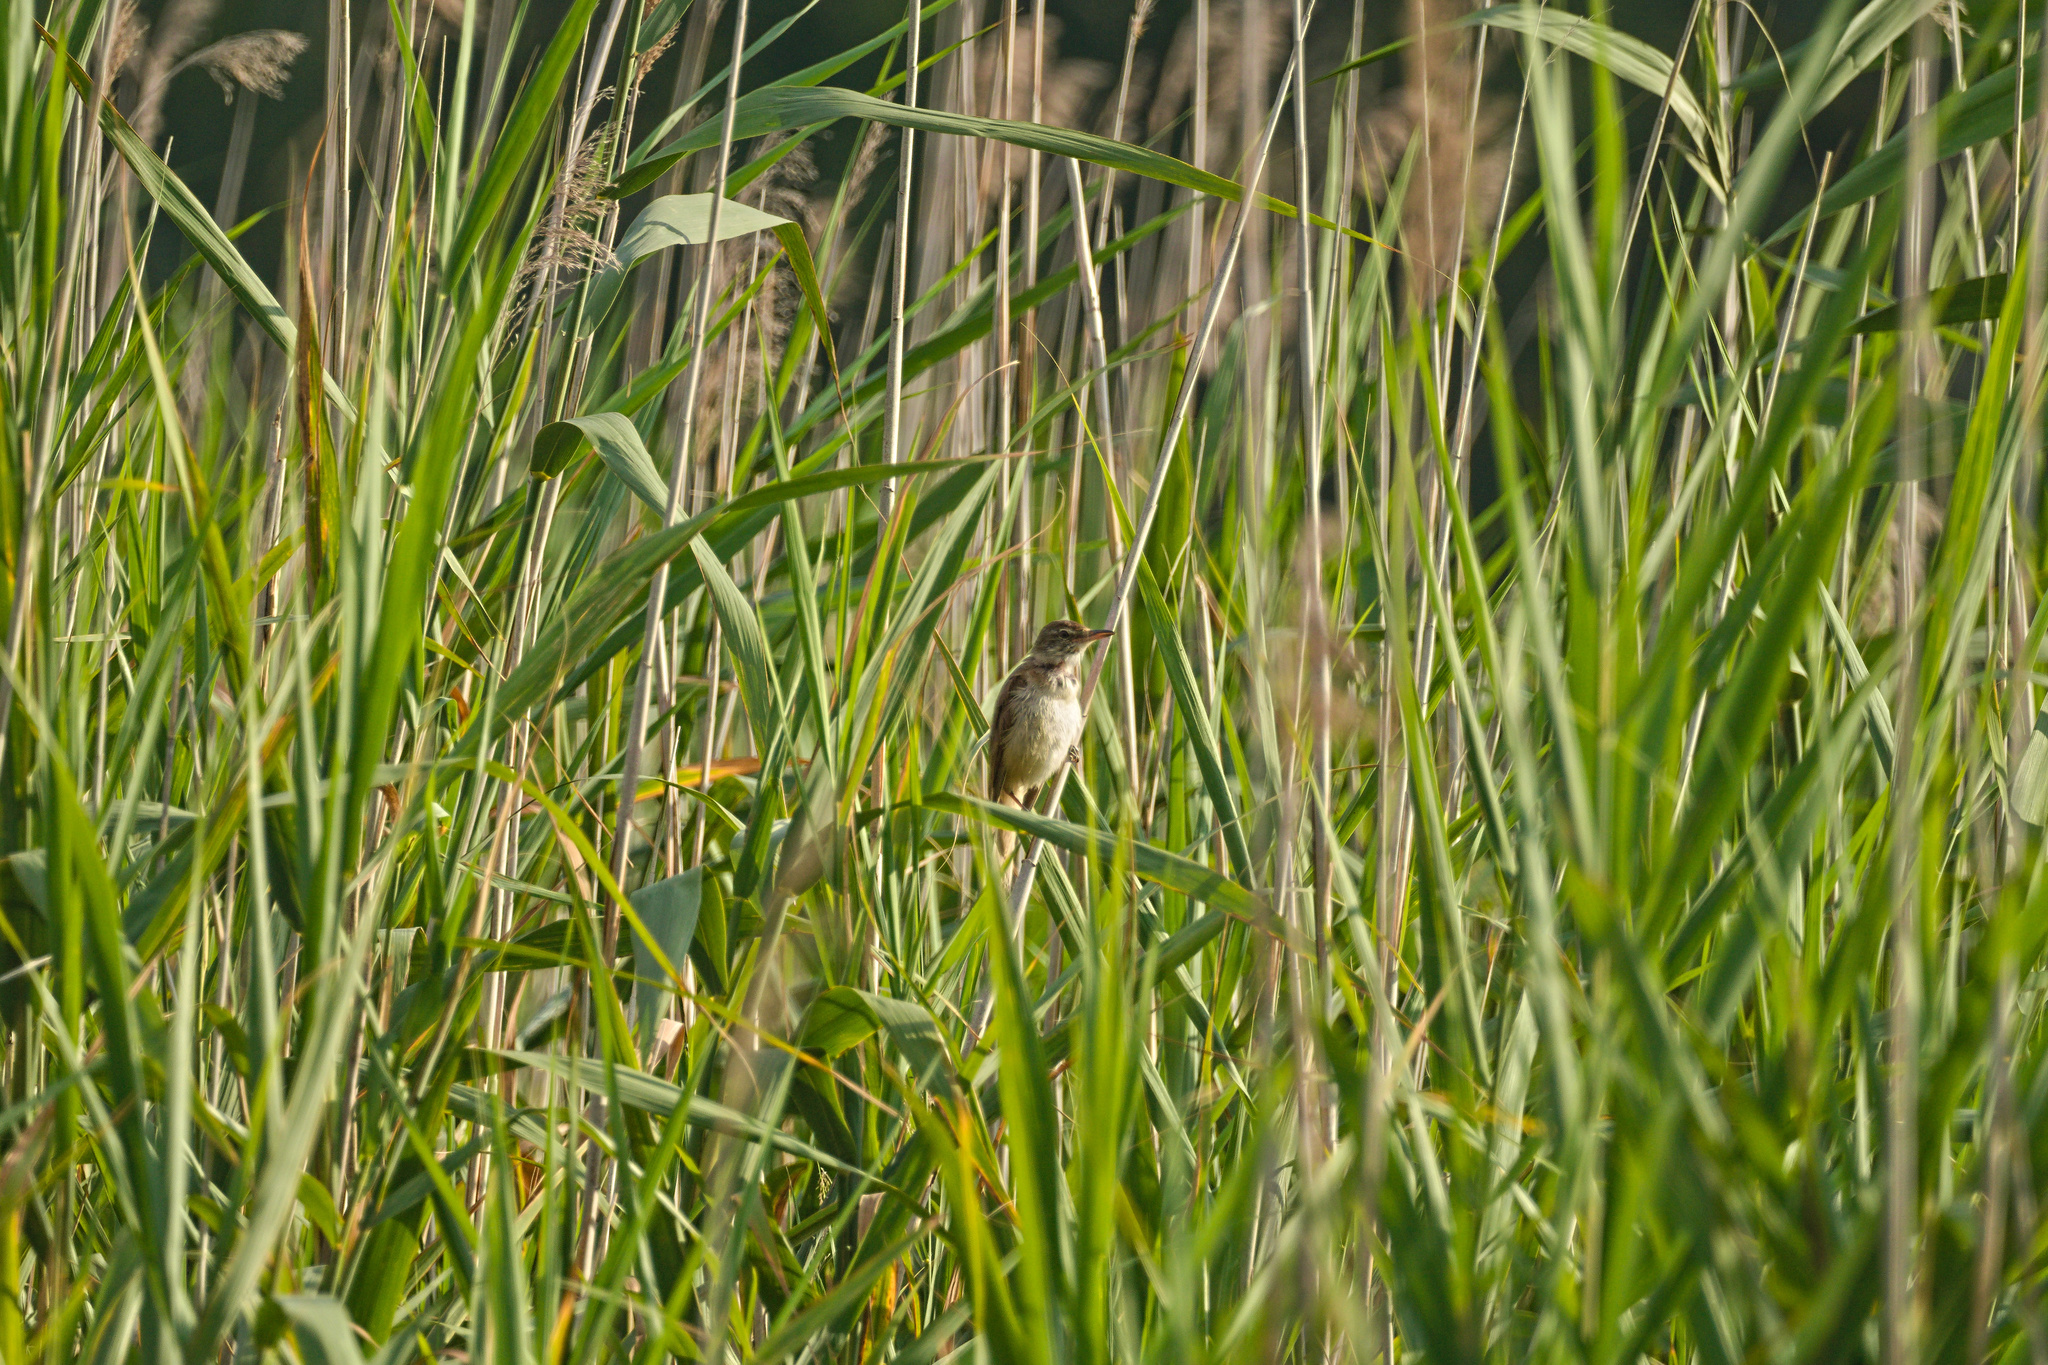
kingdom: Animalia
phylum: Chordata
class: Aves
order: Passeriformes
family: Acrocephalidae
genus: Acrocephalus
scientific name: Acrocephalus arundinaceus
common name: Great reed warbler
